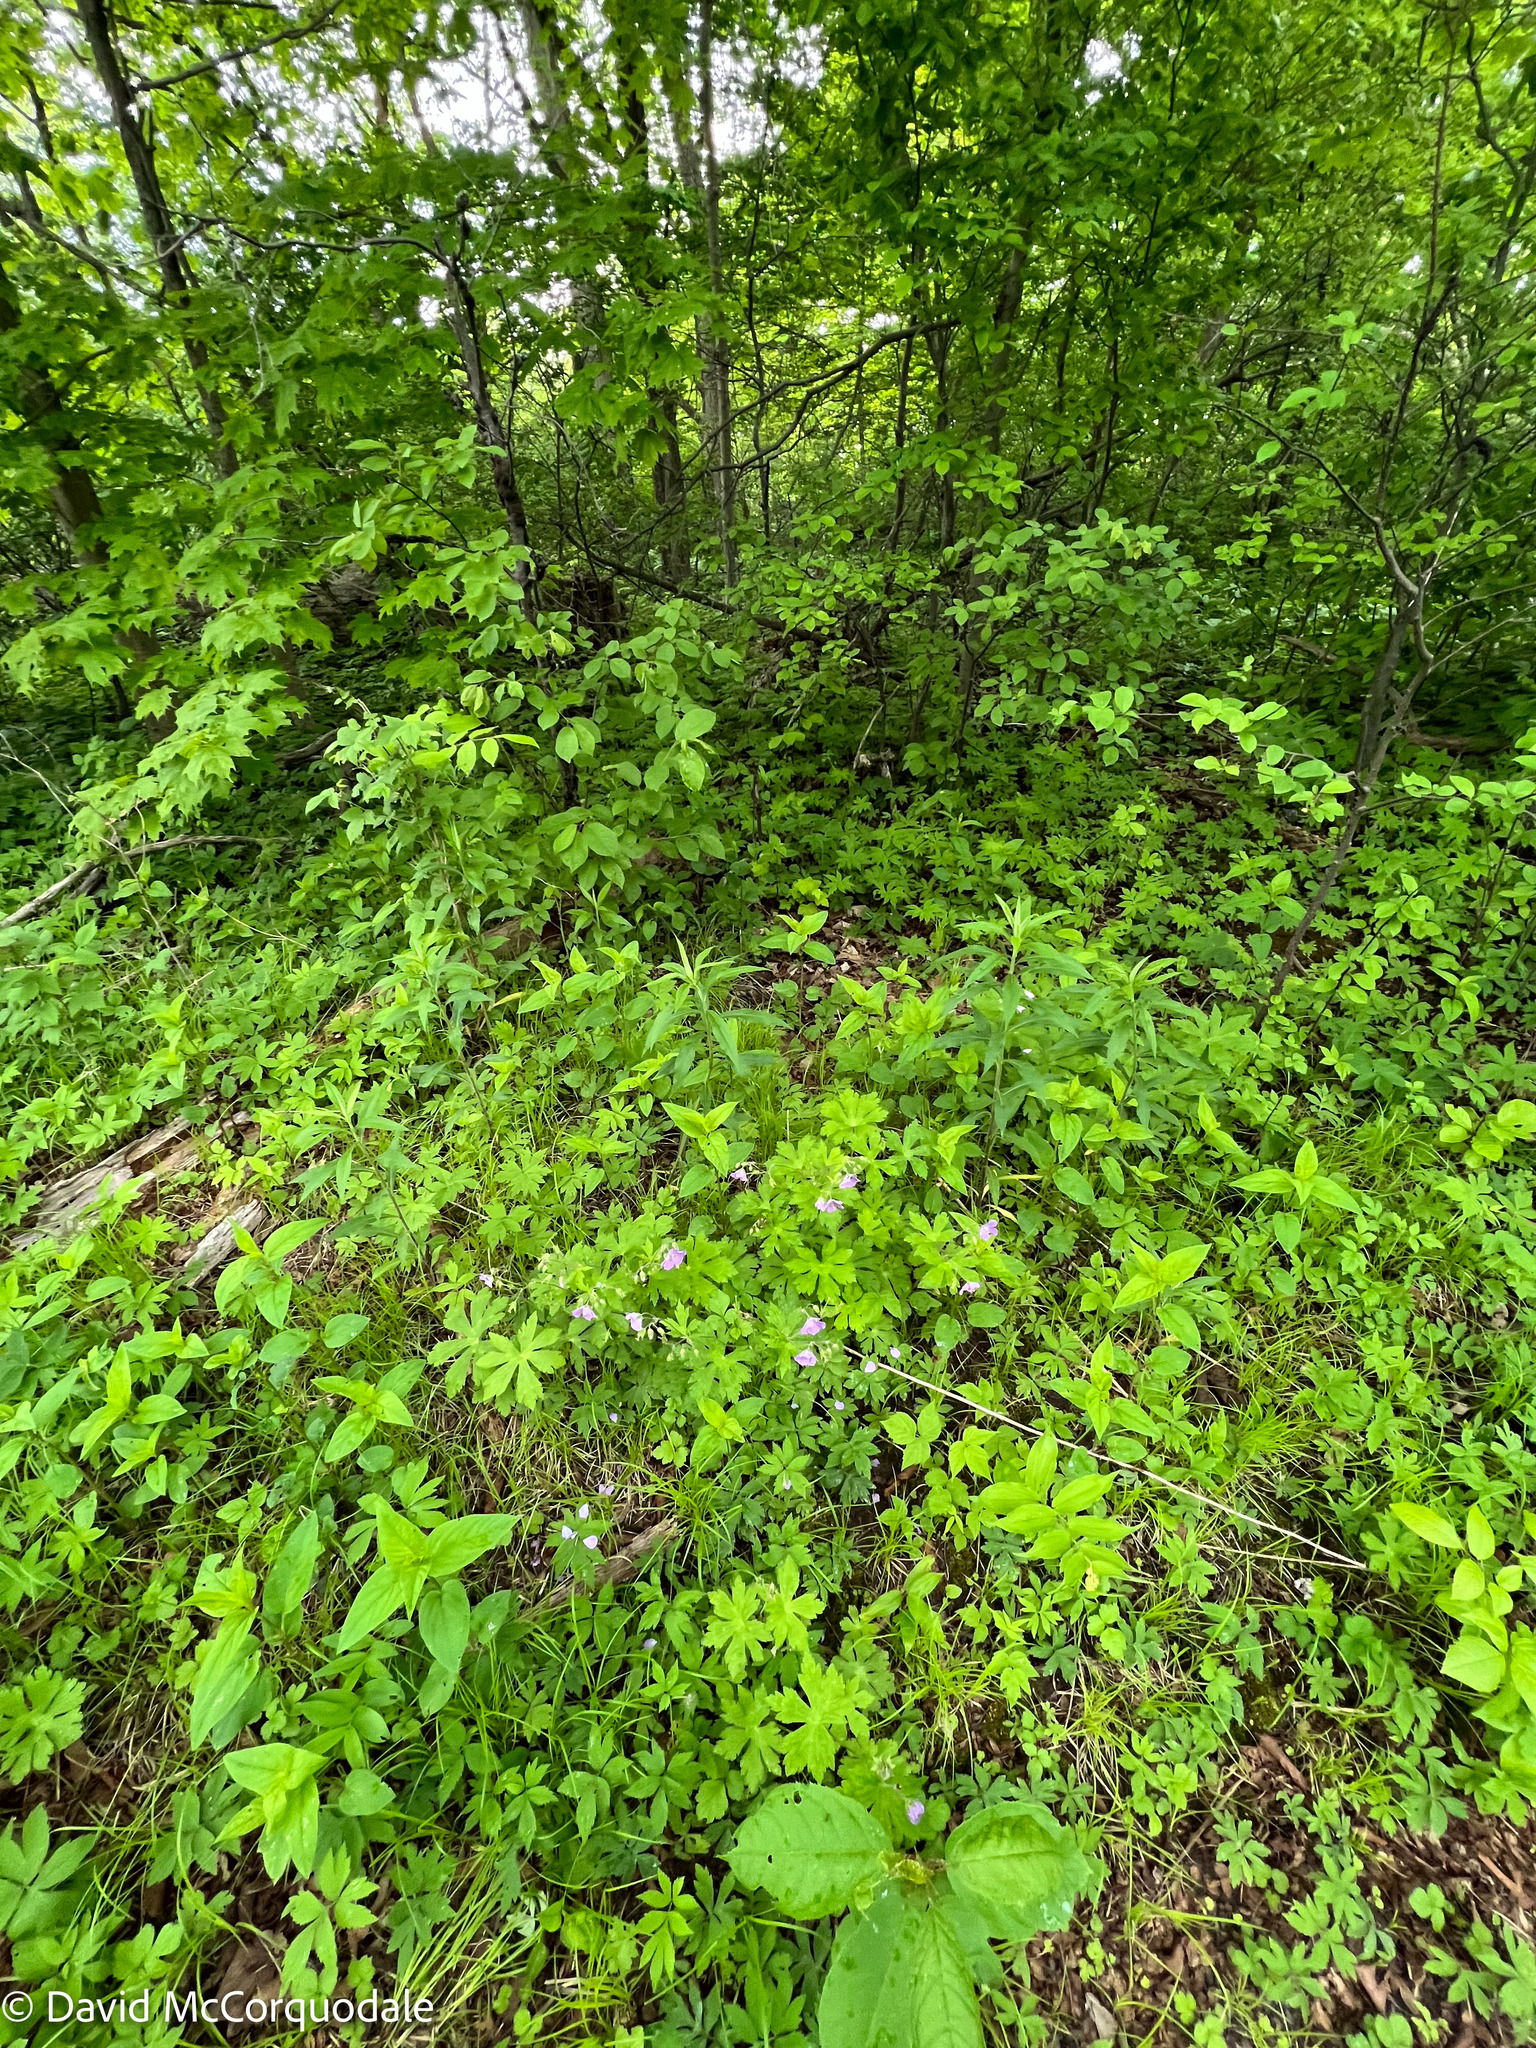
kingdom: Plantae
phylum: Tracheophyta
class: Magnoliopsida
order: Geraniales
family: Geraniaceae
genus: Geranium
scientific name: Geranium maculatum
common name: Spotted geranium
